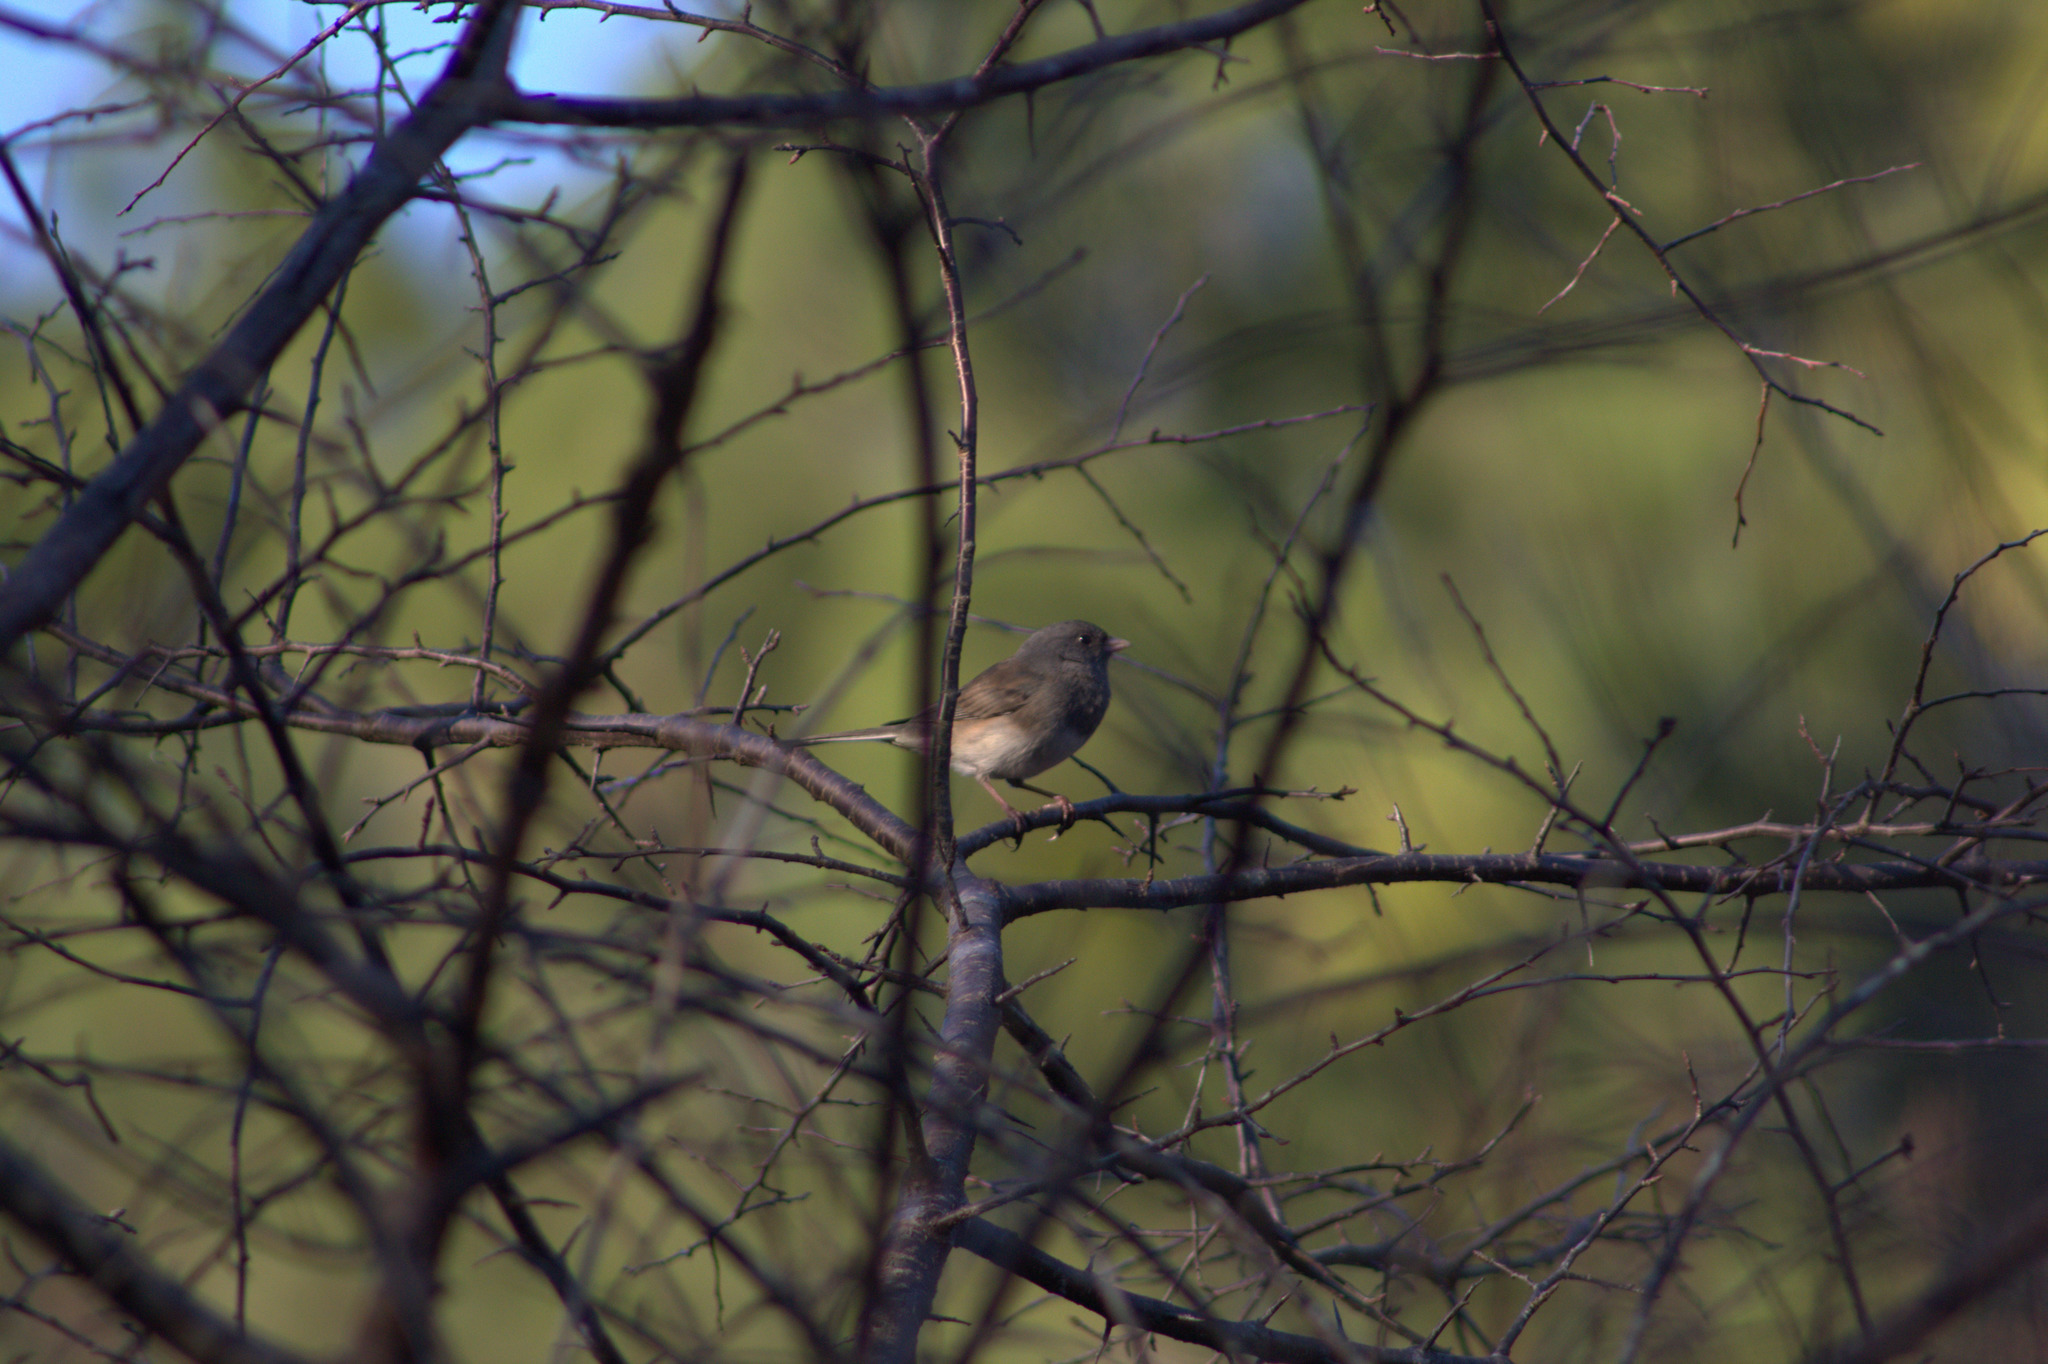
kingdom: Animalia
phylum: Chordata
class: Aves
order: Passeriformes
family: Passerellidae
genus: Junco
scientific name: Junco hyemalis
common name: Dark-eyed junco
